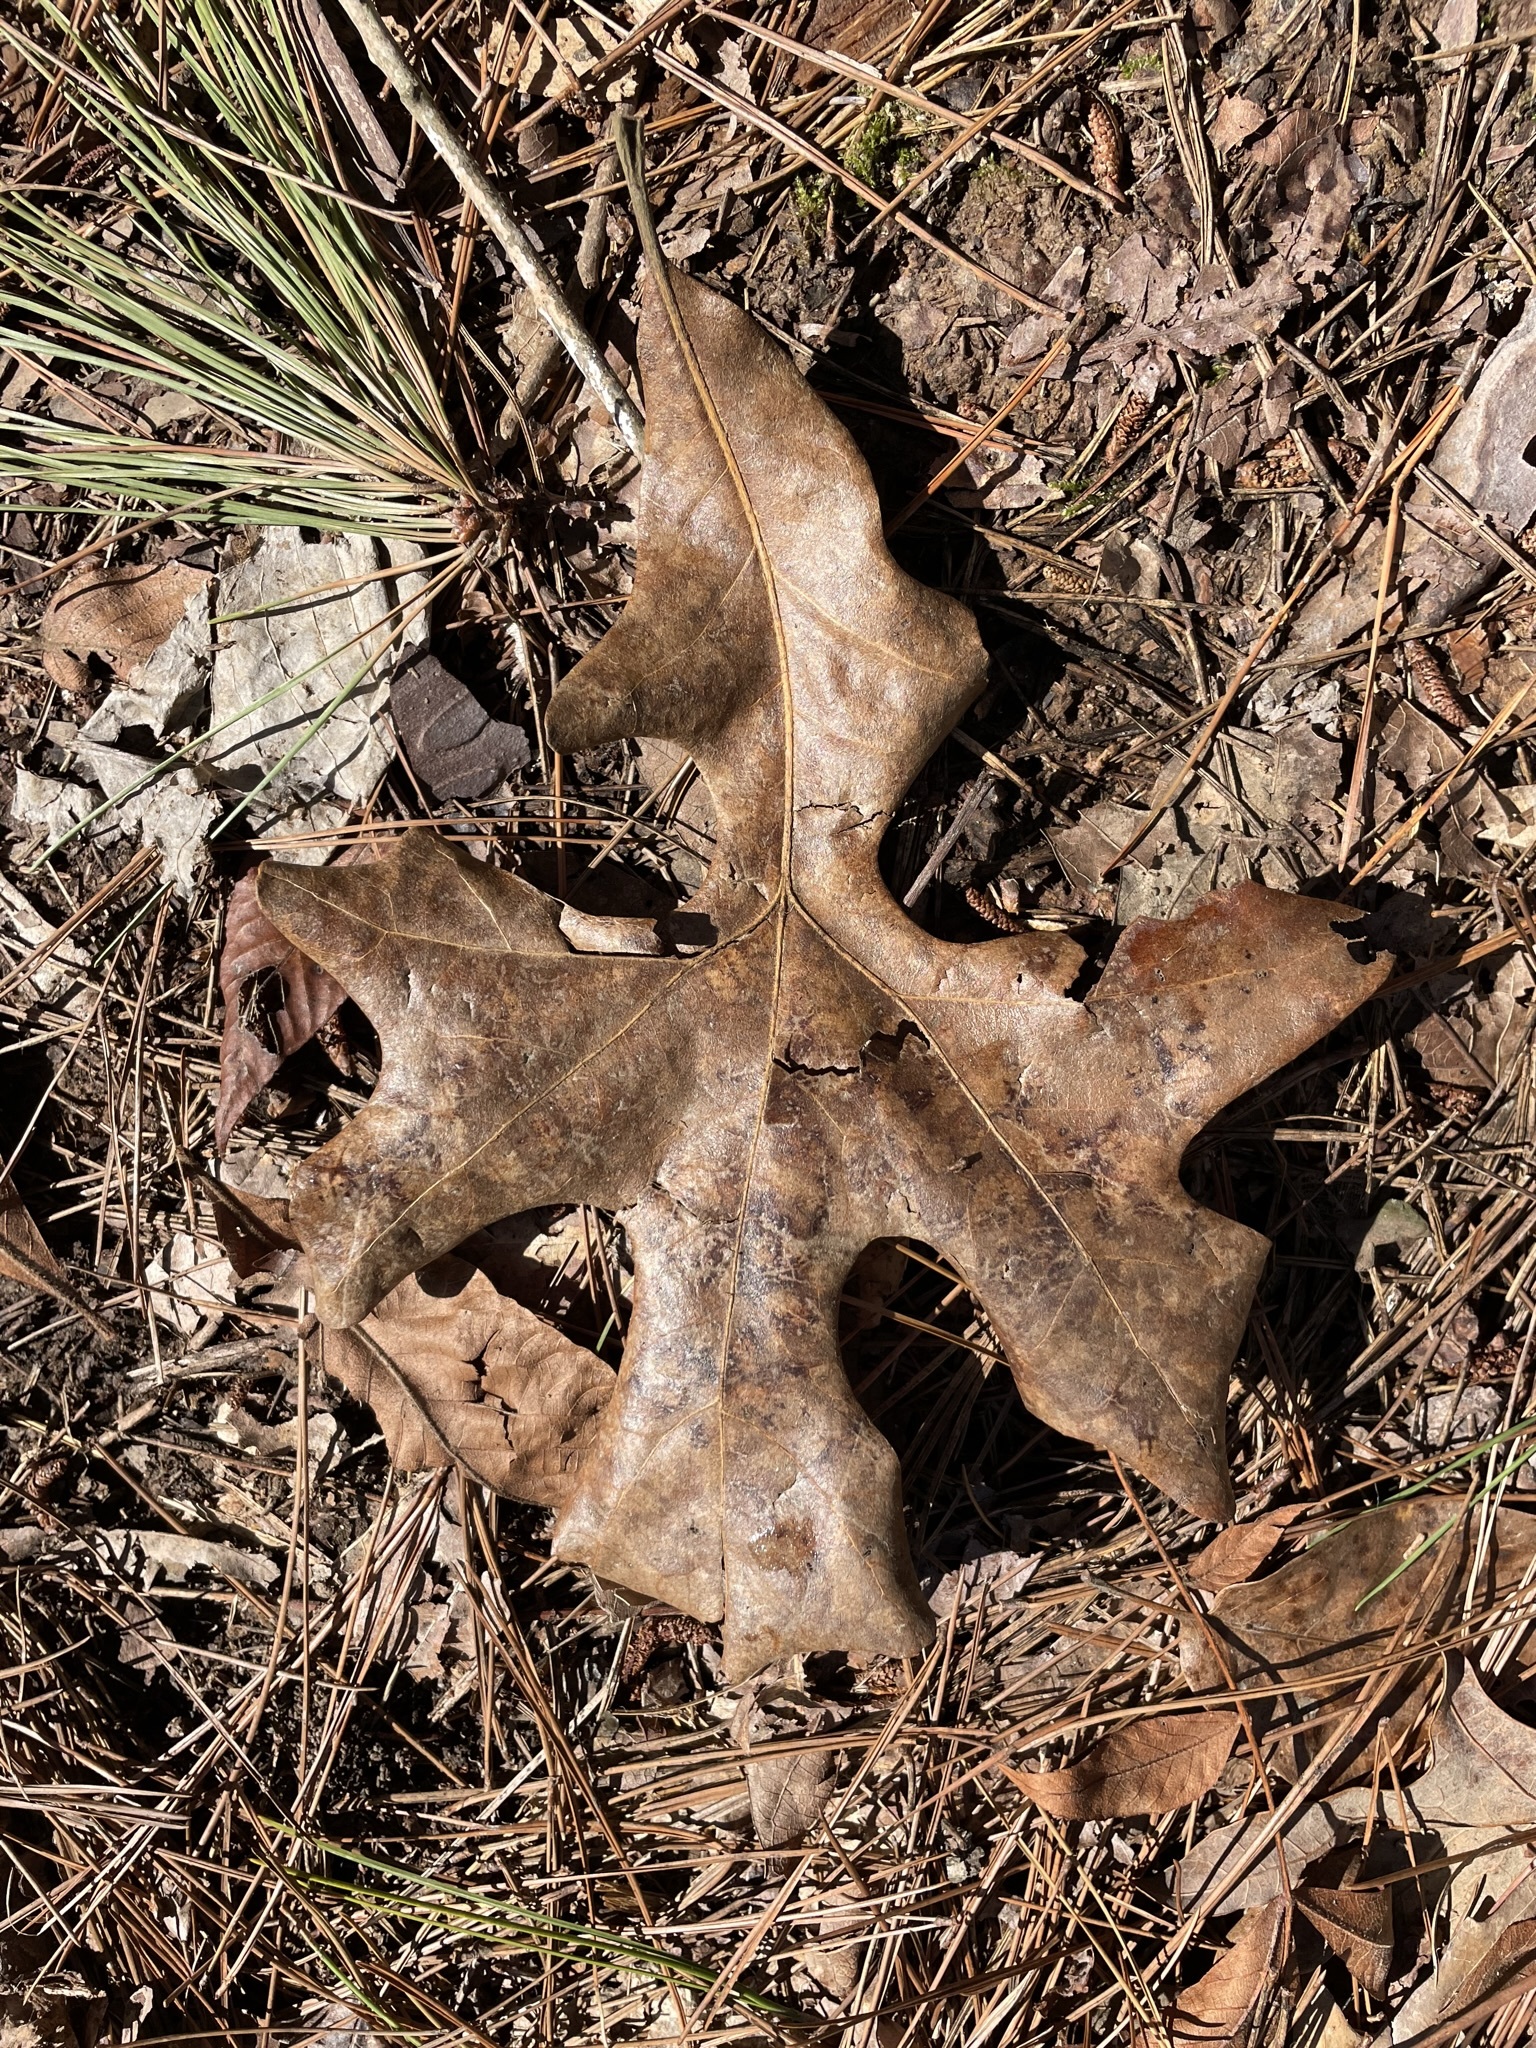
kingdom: Plantae
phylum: Tracheophyta
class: Magnoliopsida
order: Fagales
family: Fagaceae
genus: Quercus
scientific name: Quercus stellata
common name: Post oak
